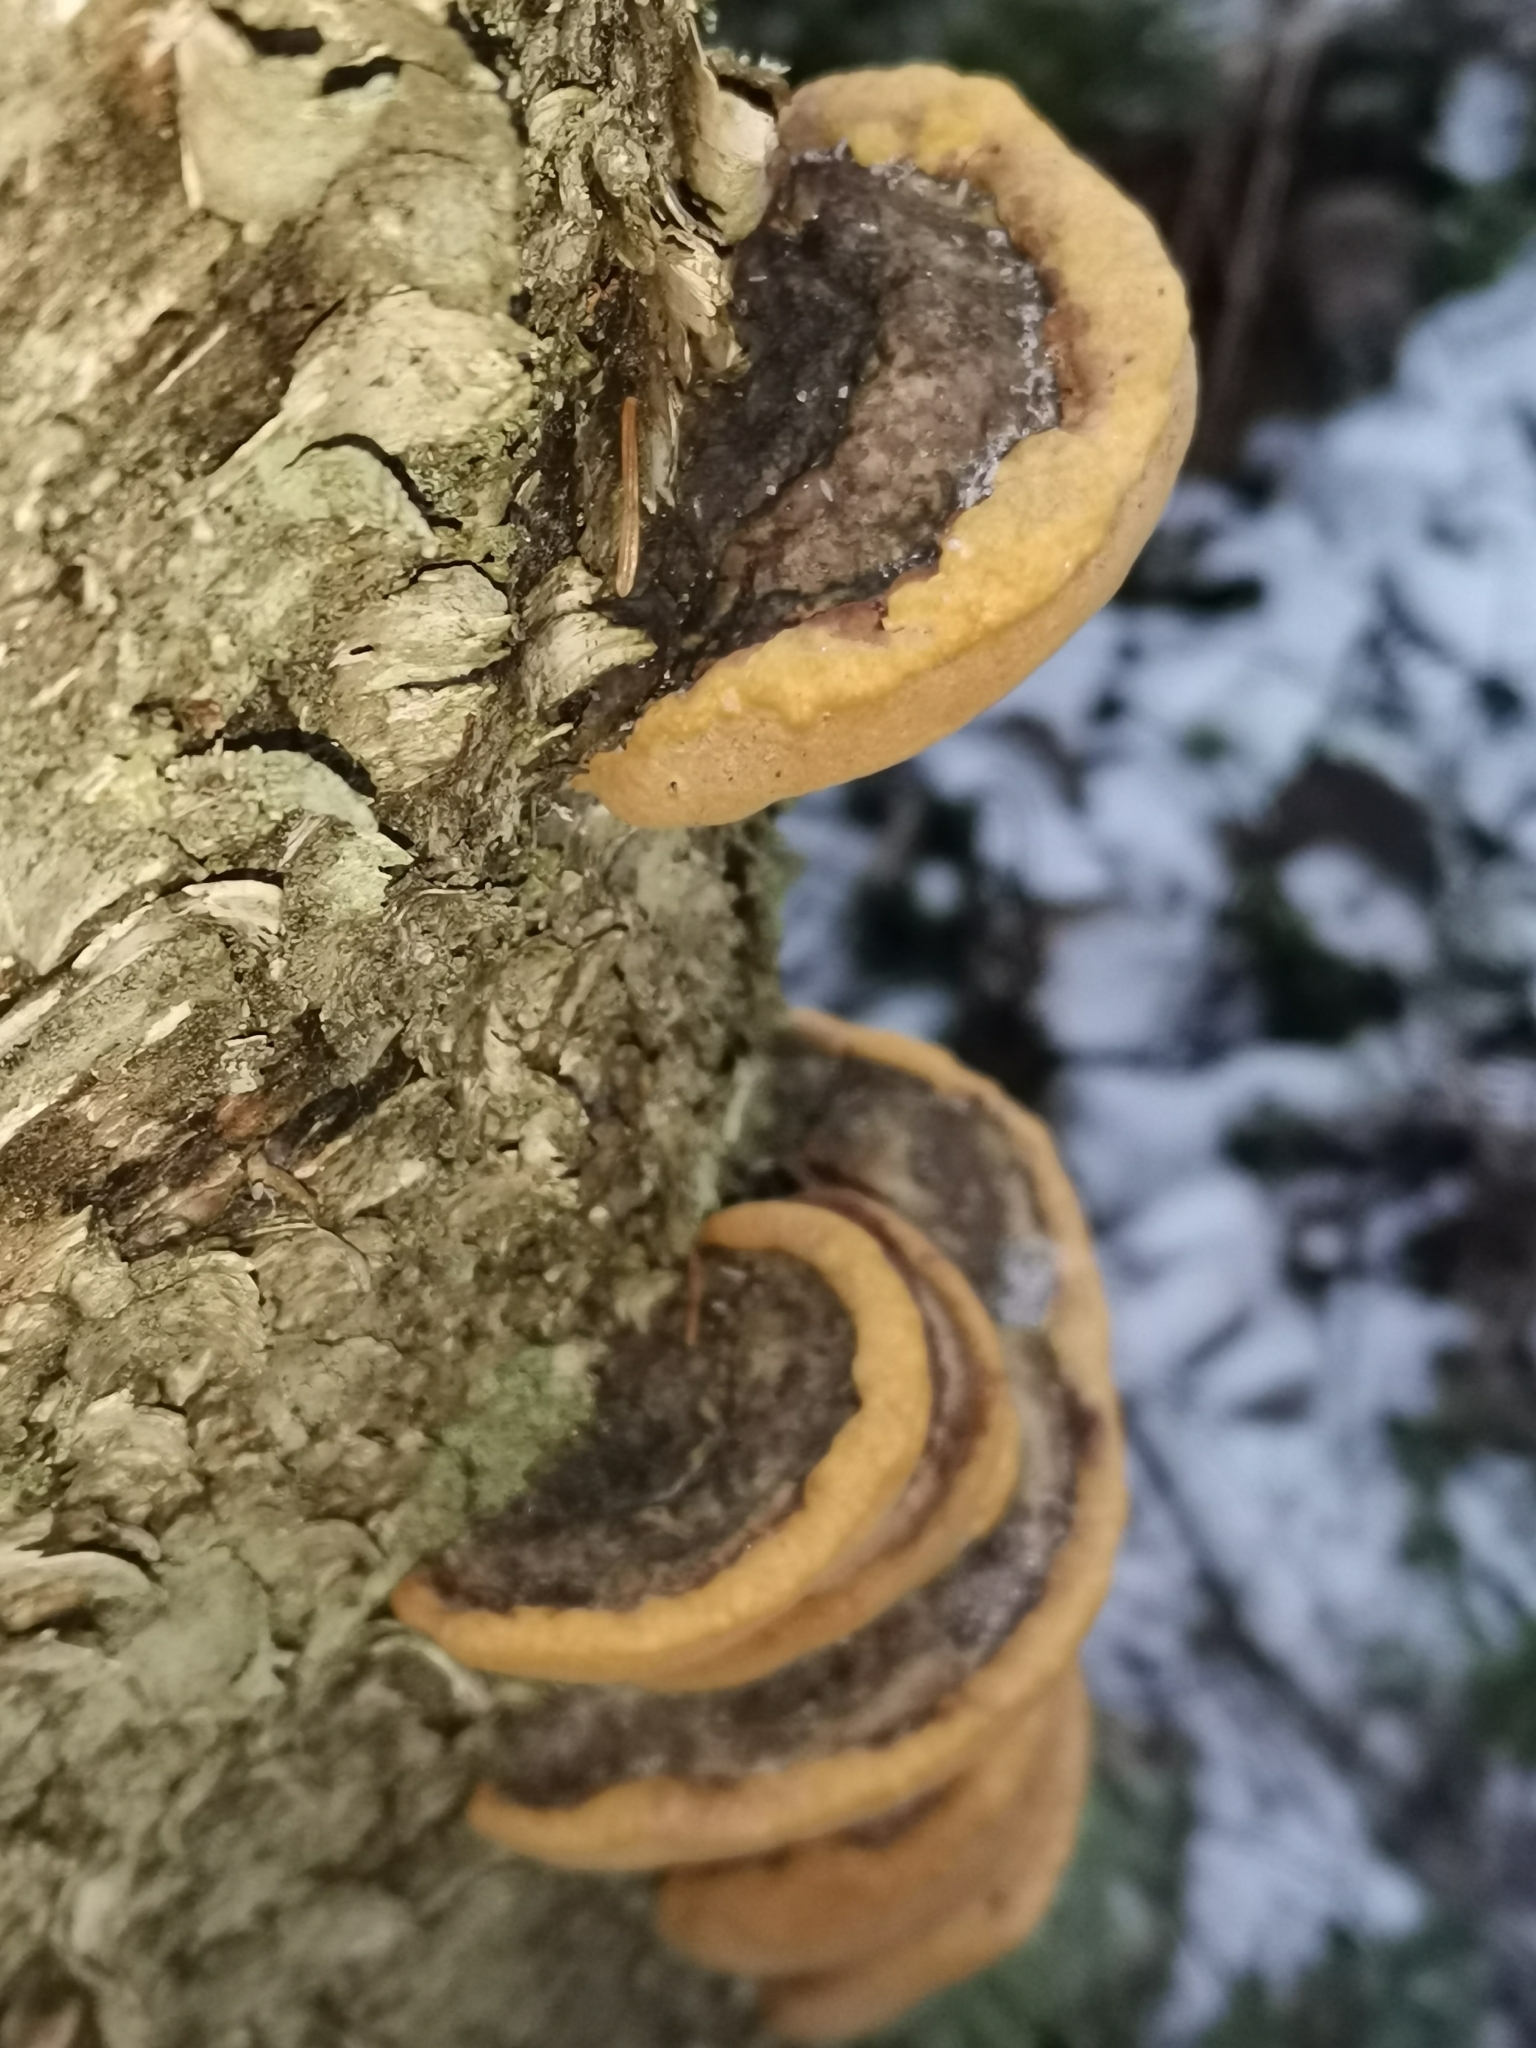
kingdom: Fungi
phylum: Basidiomycota
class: Agaricomycetes
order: Hymenochaetales
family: Hymenochaetaceae
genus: Phellinus
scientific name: Phellinus igniarius
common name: Willow bracket
